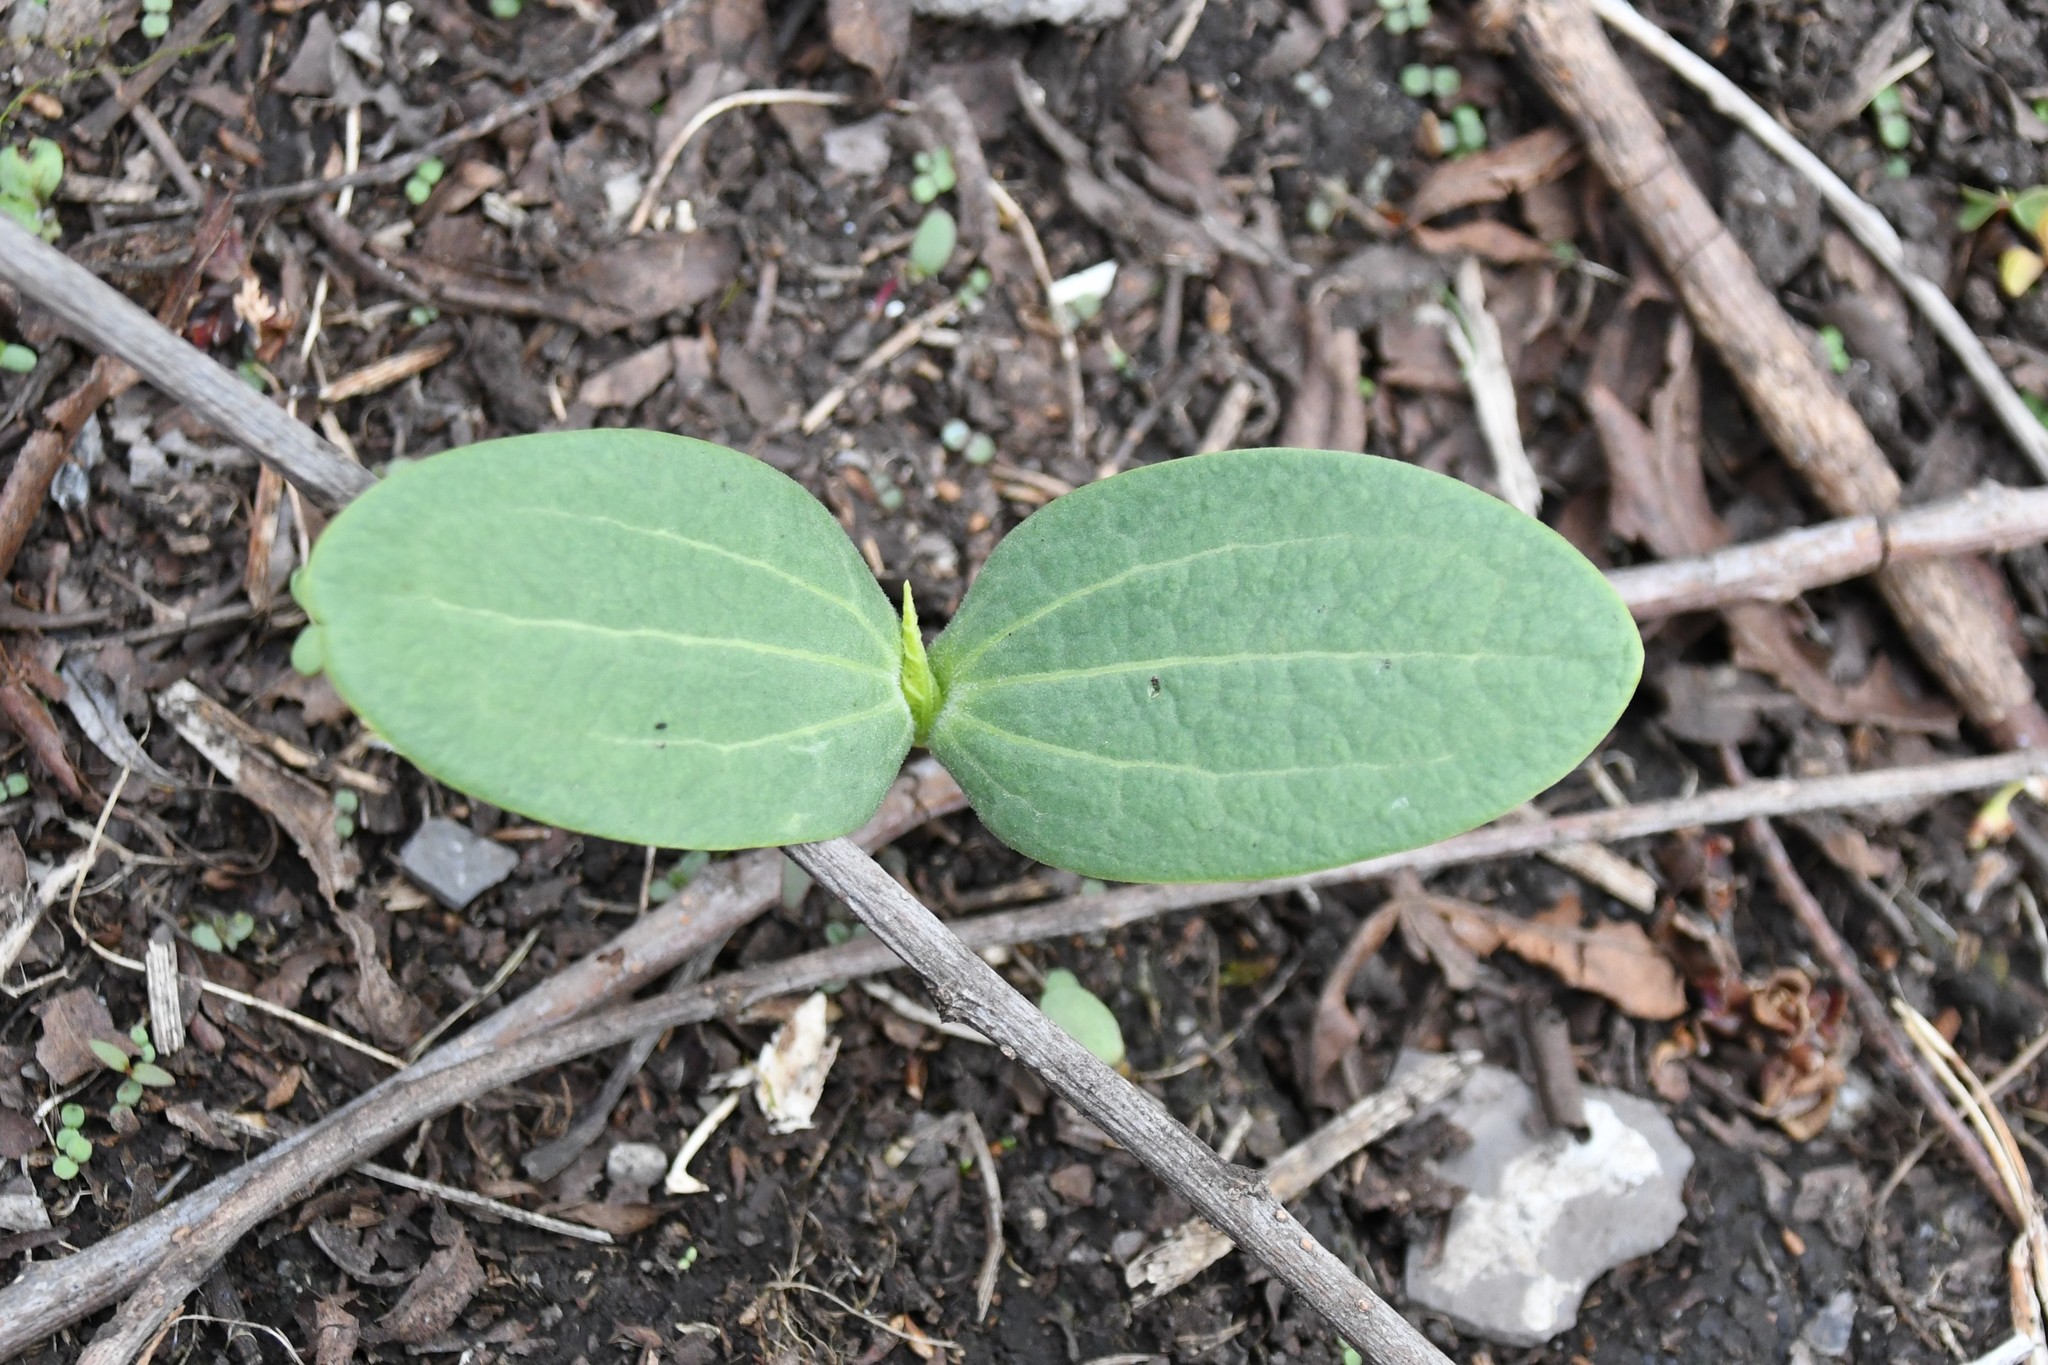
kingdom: Plantae
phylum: Tracheophyta
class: Magnoliopsida
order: Cucurbitales
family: Cucurbitaceae
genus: Echinocystis
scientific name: Echinocystis lobata
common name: Wild cucumber
